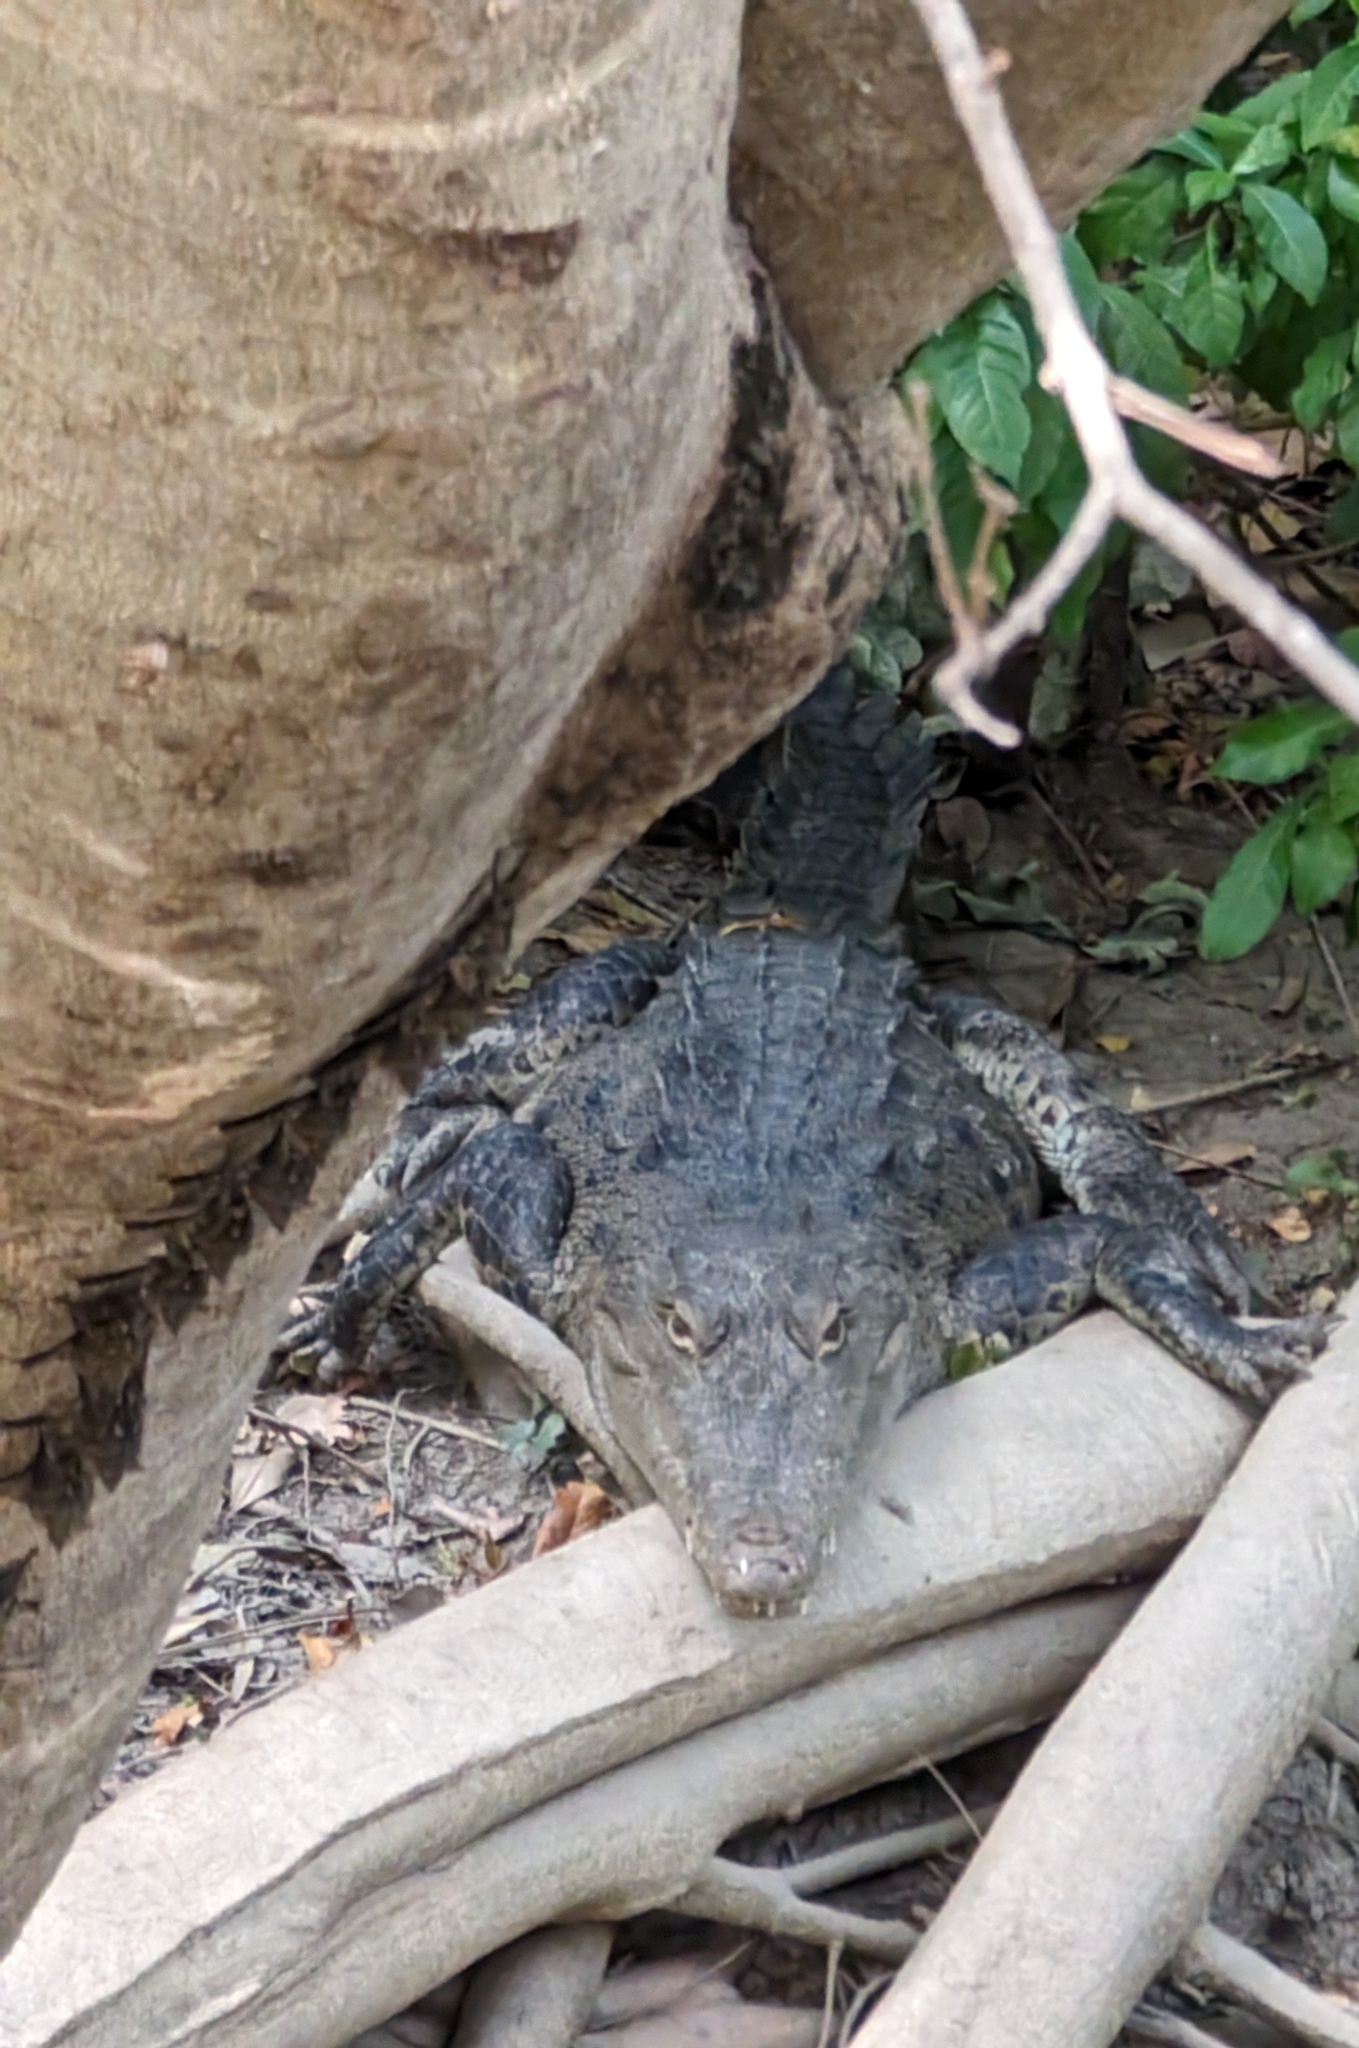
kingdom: Animalia
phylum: Chordata
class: Crocodylia
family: Crocodylidae
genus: Crocodylus
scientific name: Crocodylus acutus
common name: American crocodile
